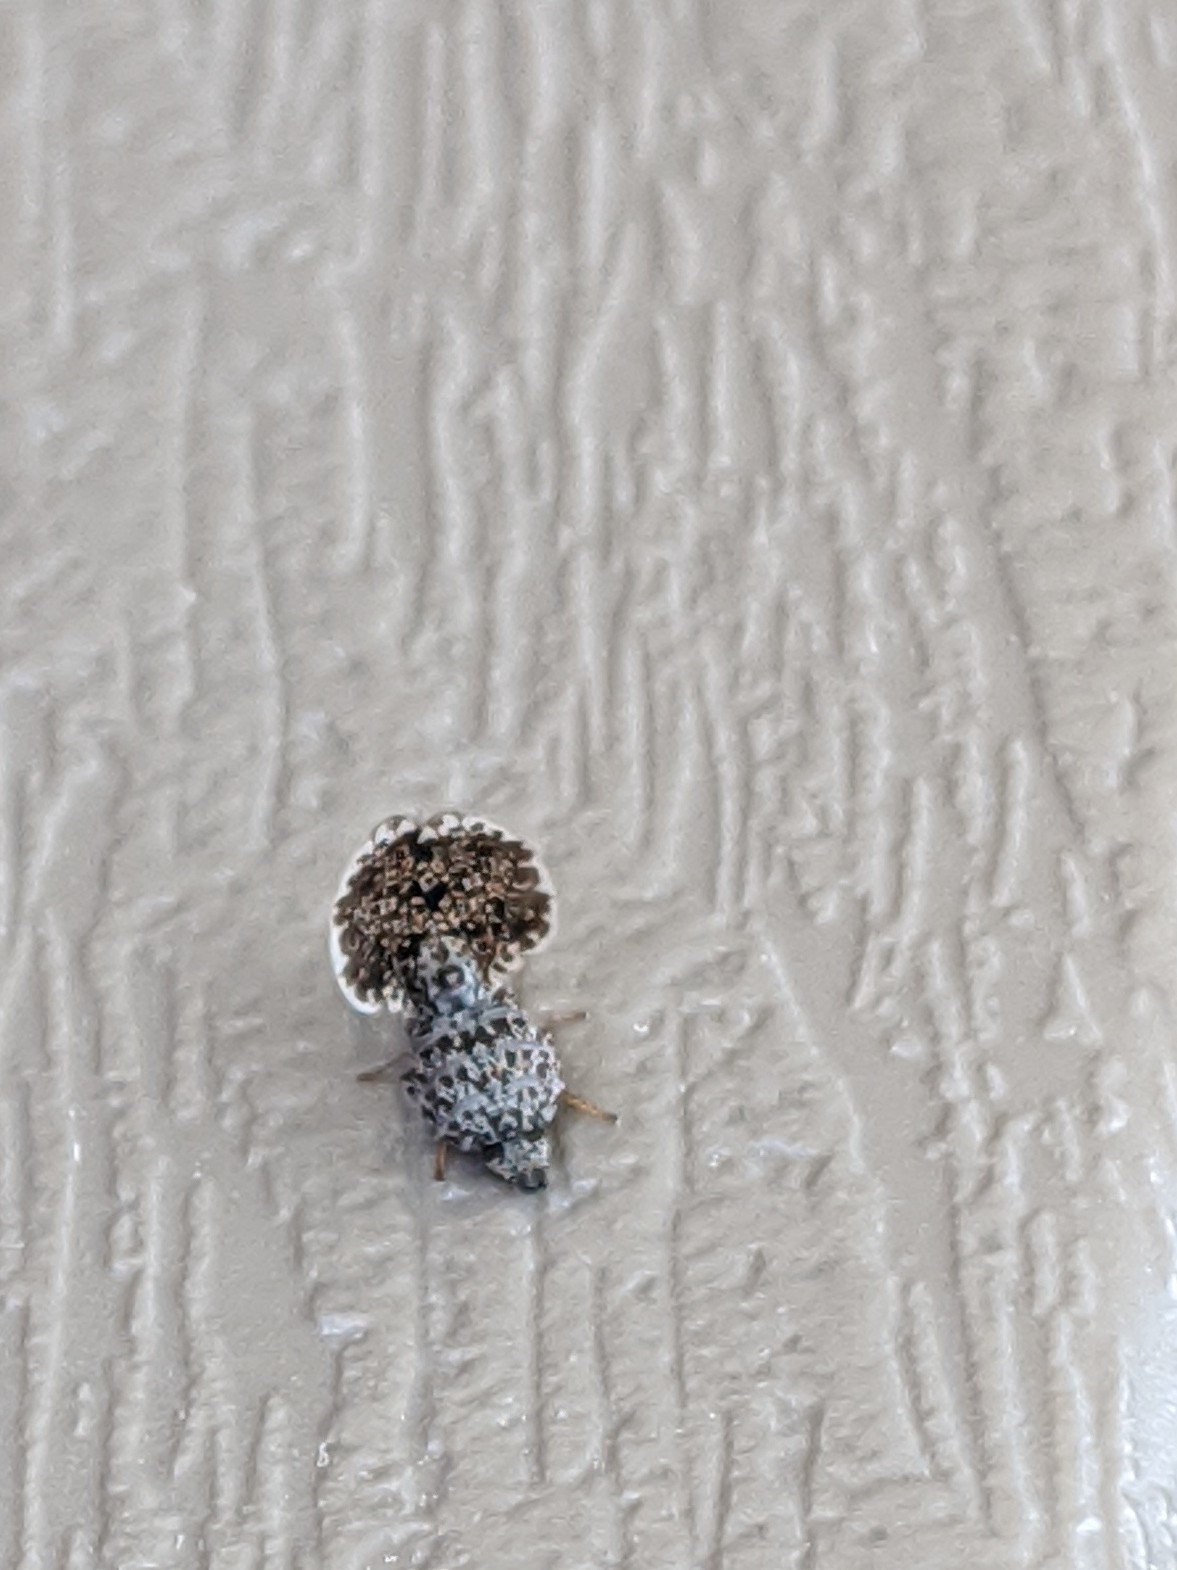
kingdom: Animalia
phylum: Arthropoda
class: Insecta
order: Diptera
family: Ulidiidae
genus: Callopistromyia
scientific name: Callopistromyia annulipes
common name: Peacock fly
